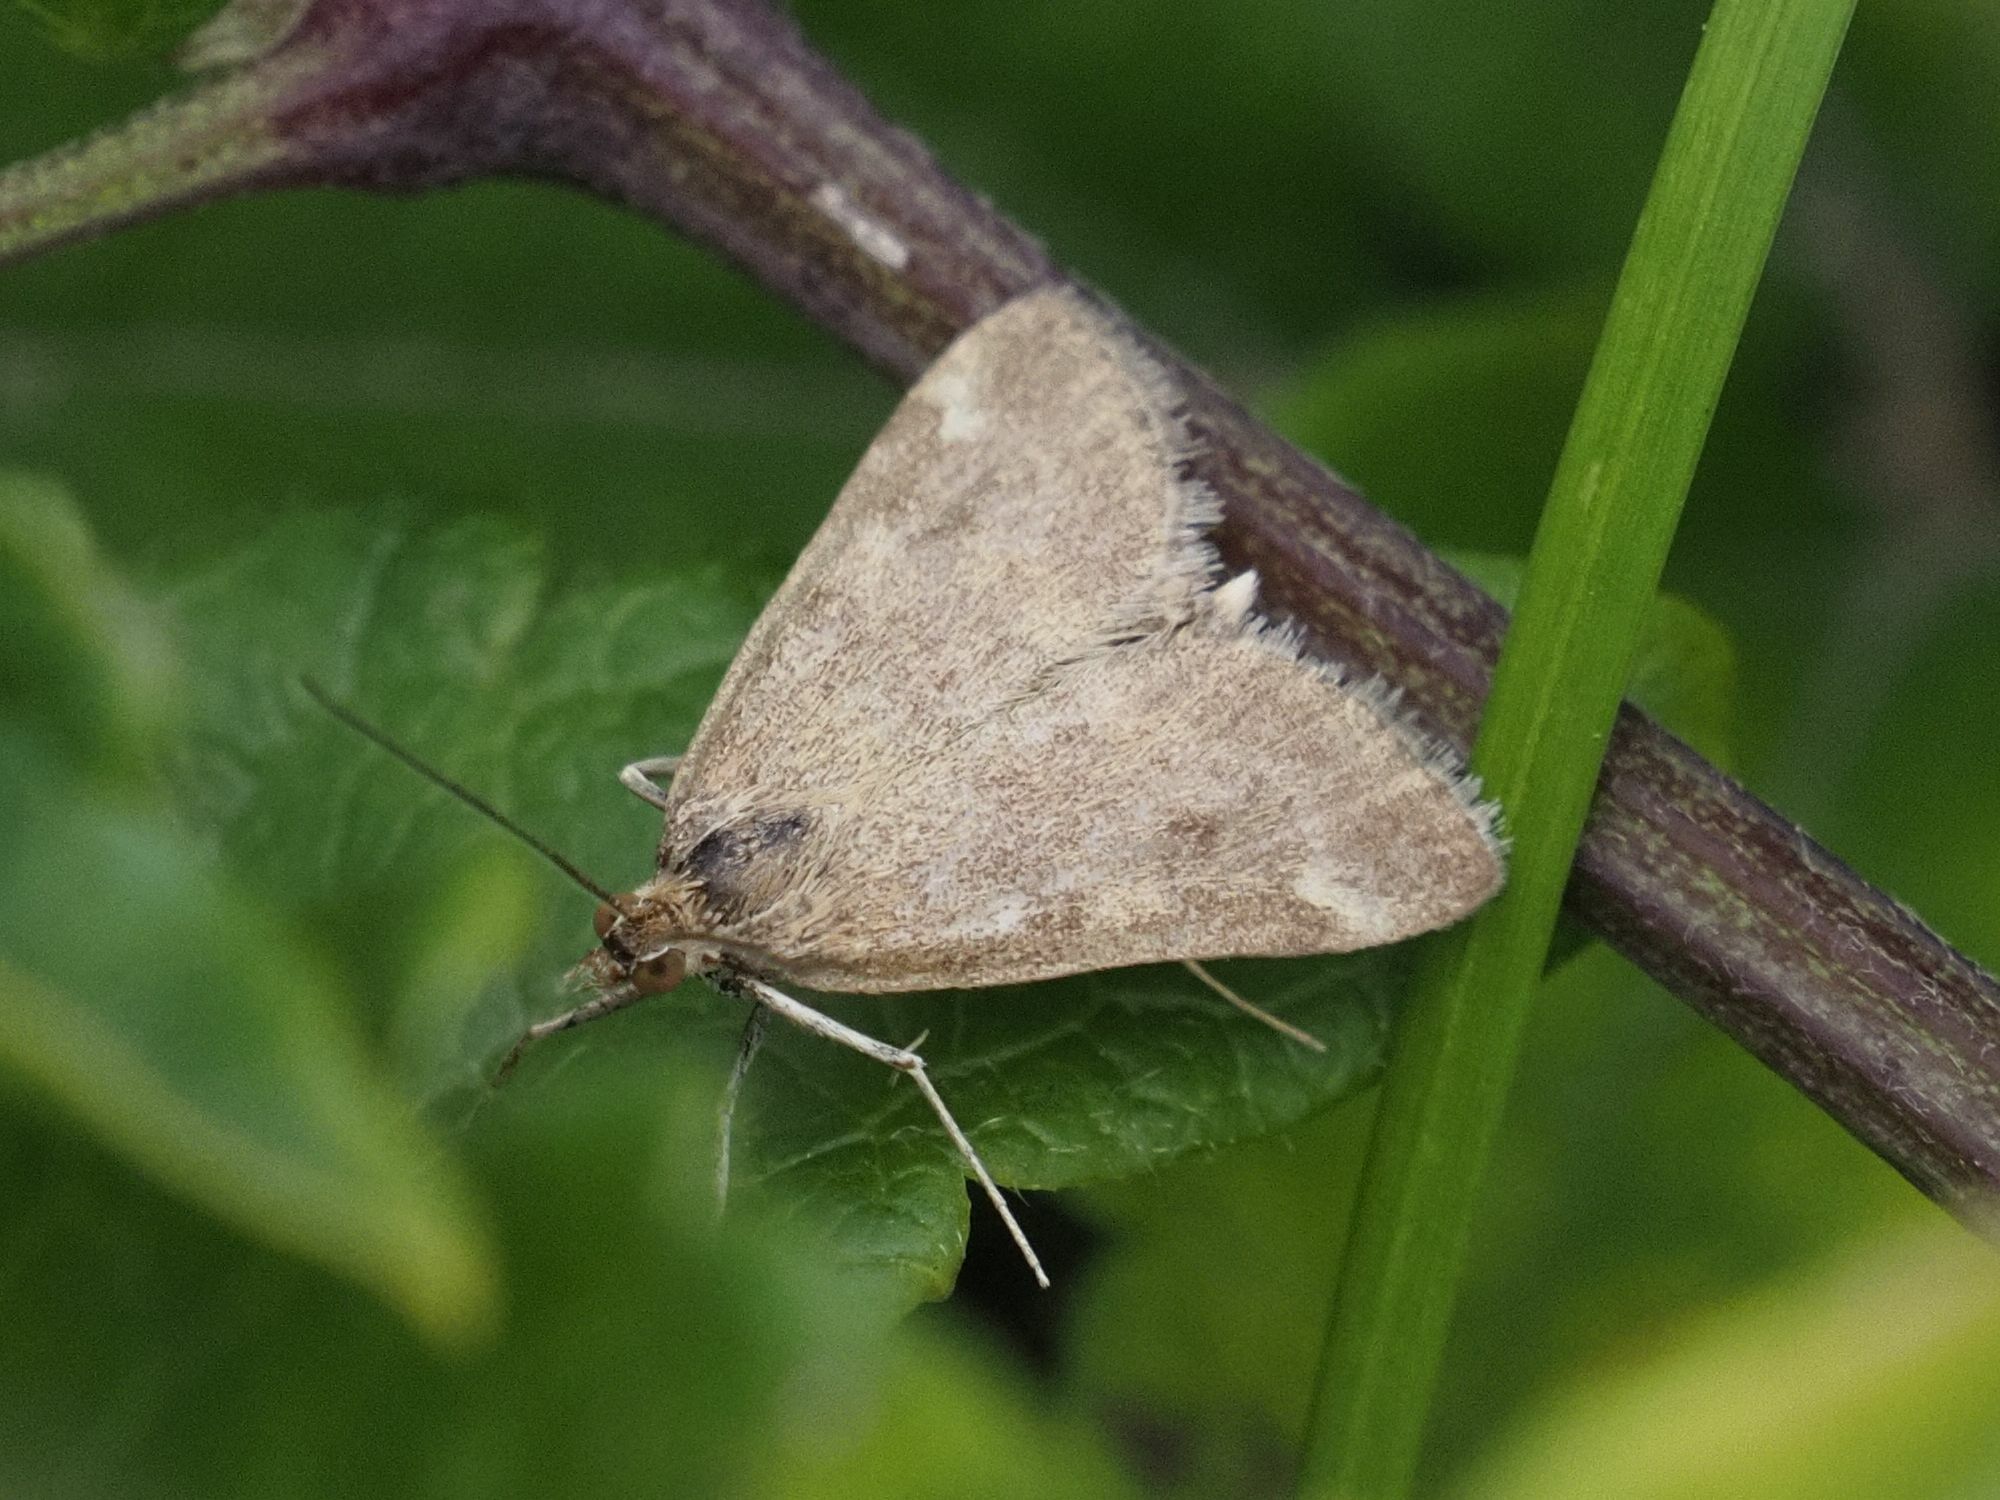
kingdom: Animalia
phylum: Arthropoda
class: Insecta
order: Lepidoptera
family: Crambidae
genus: Pyrausta
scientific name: Pyrausta despicata
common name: Straw-barred pearl
